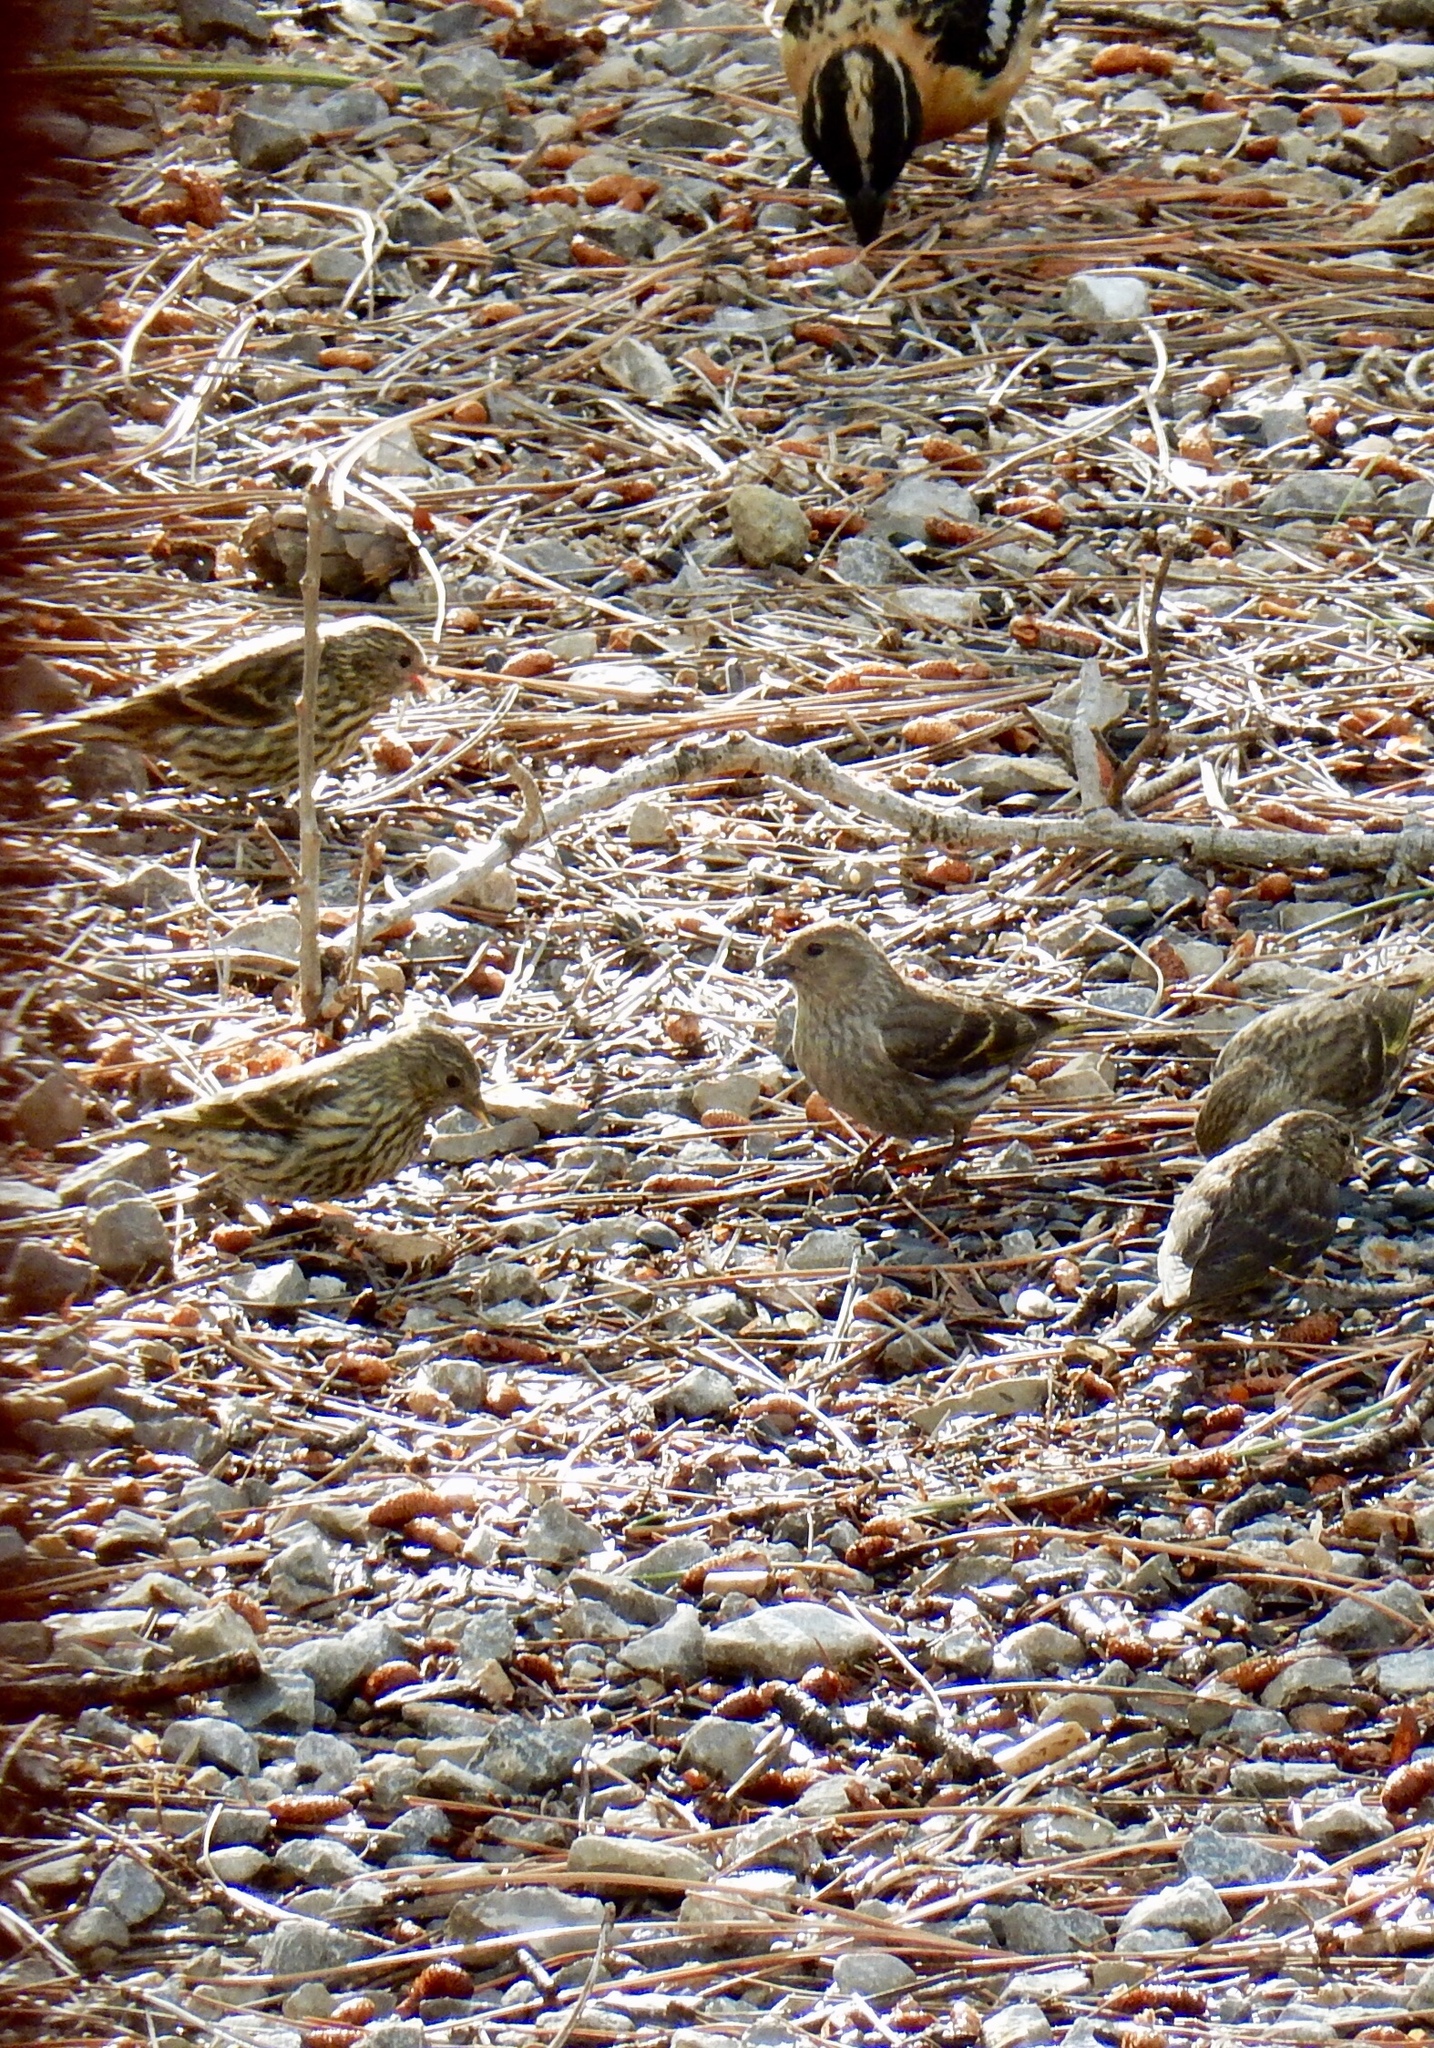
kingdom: Animalia
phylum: Chordata
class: Aves
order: Passeriformes
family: Fringillidae
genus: Spinus
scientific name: Spinus pinus
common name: Pine siskin
